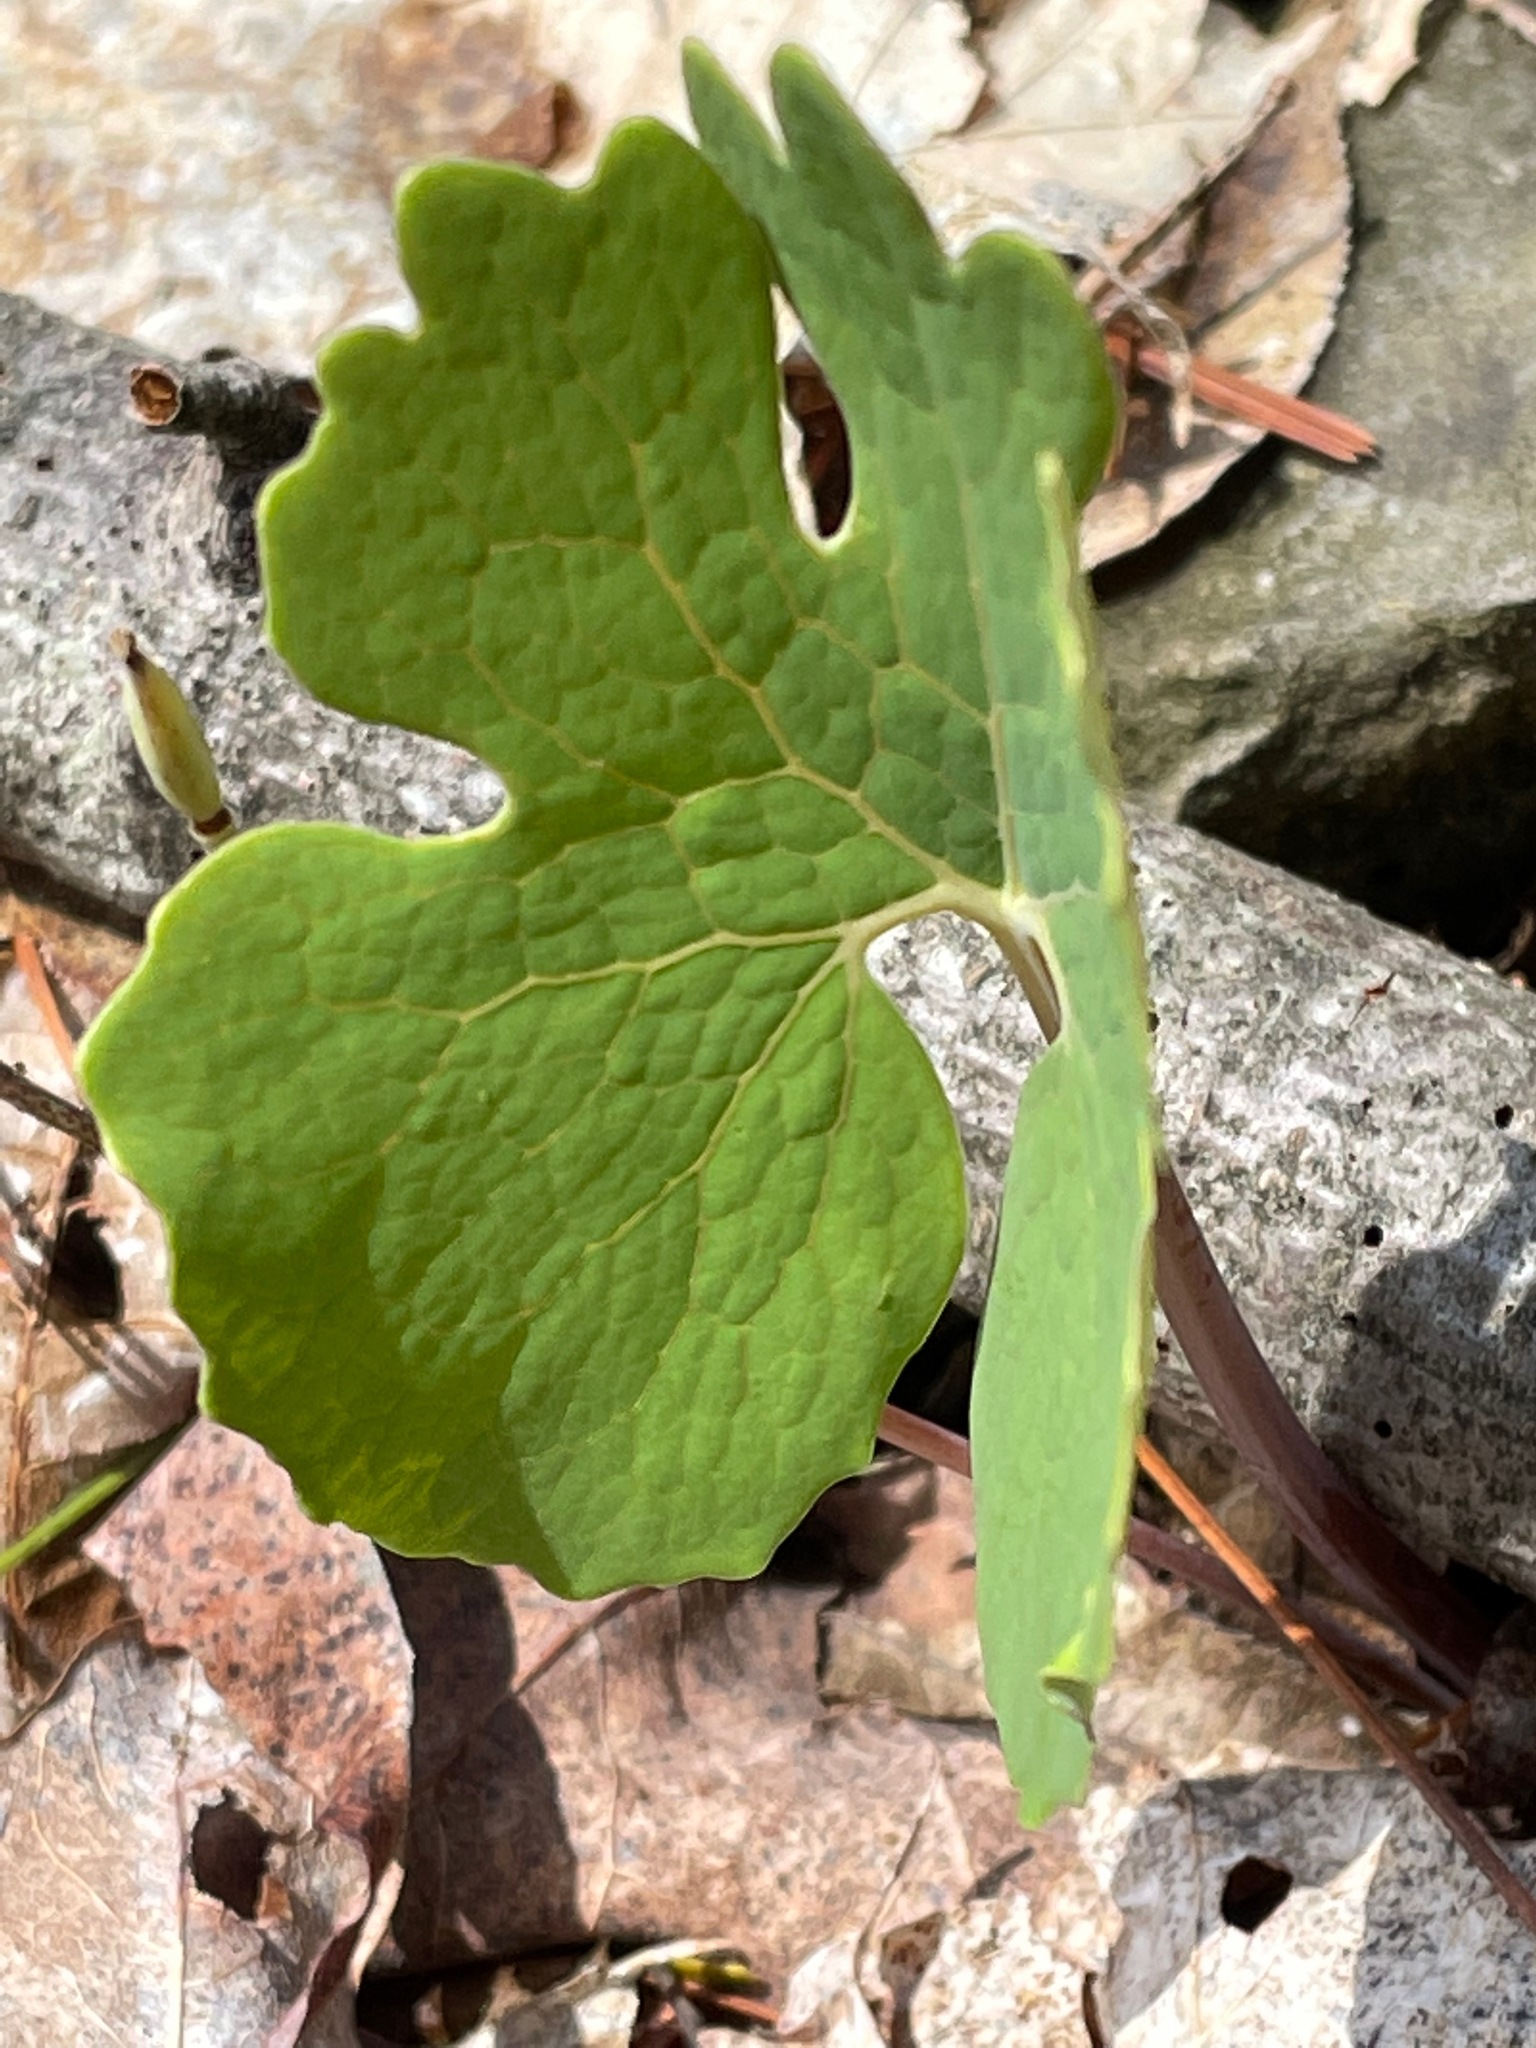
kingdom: Plantae
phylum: Tracheophyta
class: Magnoliopsida
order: Ranunculales
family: Papaveraceae
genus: Sanguinaria
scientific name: Sanguinaria canadensis
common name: Bloodroot
